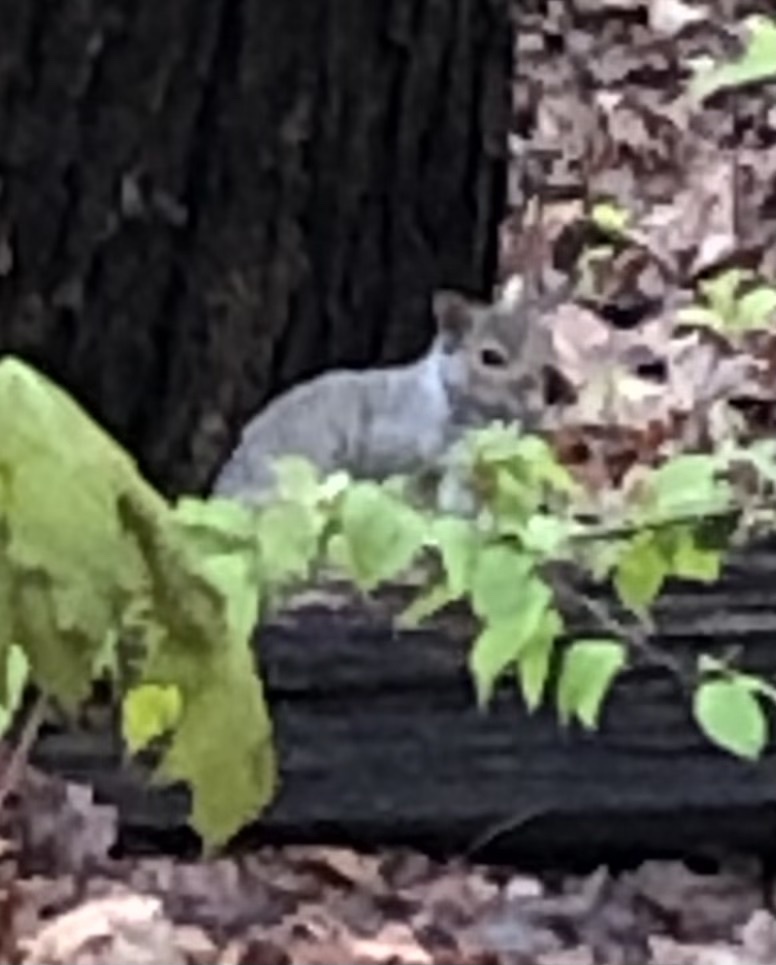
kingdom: Animalia
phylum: Chordata
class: Mammalia
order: Rodentia
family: Sciuridae
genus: Sciurus
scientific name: Sciurus carolinensis
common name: Eastern gray squirrel
